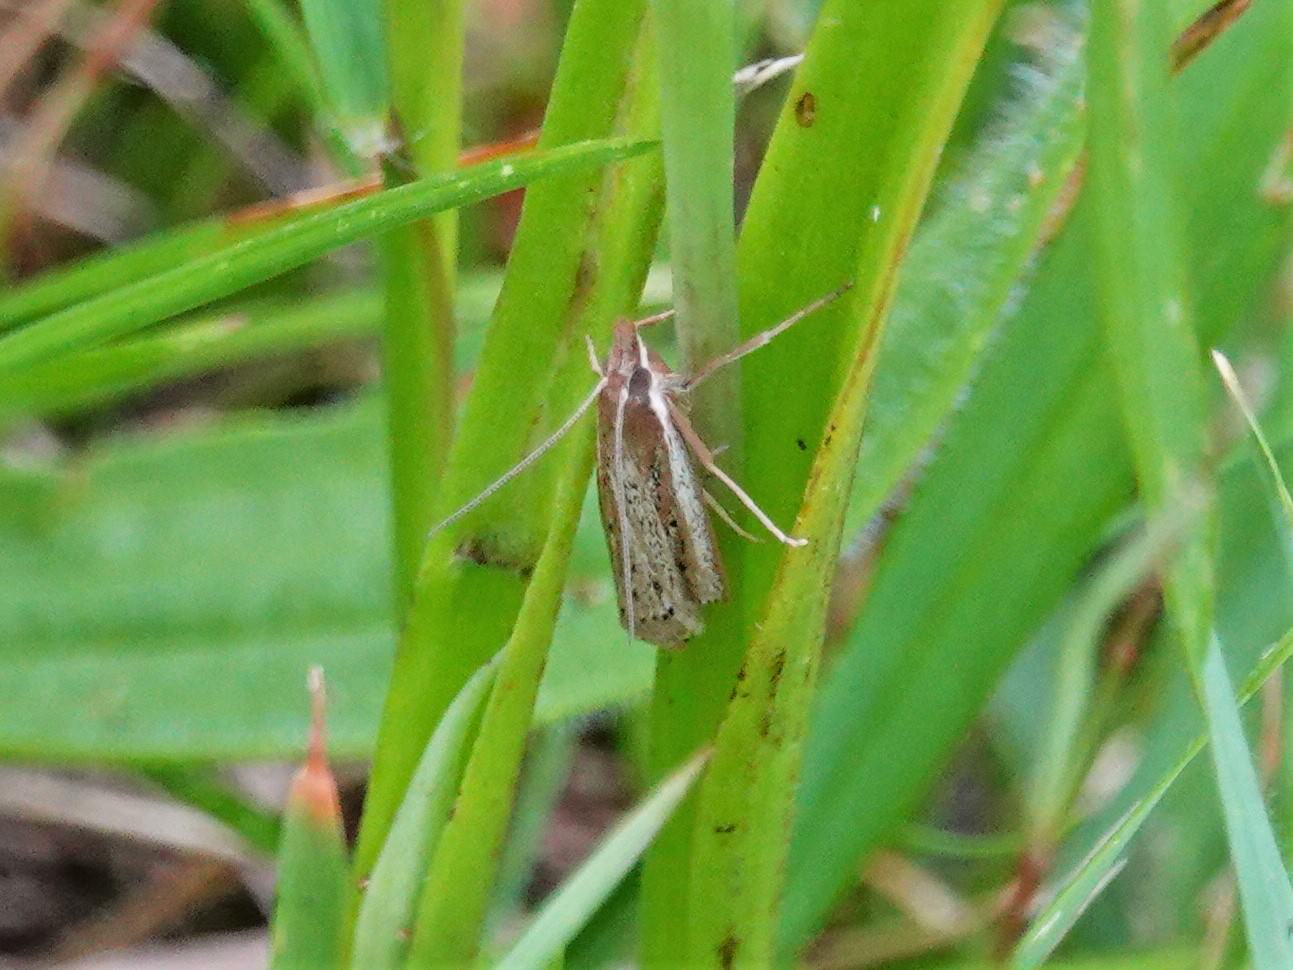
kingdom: Animalia
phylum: Arthropoda
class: Insecta
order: Lepidoptera
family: Crambidae
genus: Eudonia
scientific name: Eudonia sabulosella
